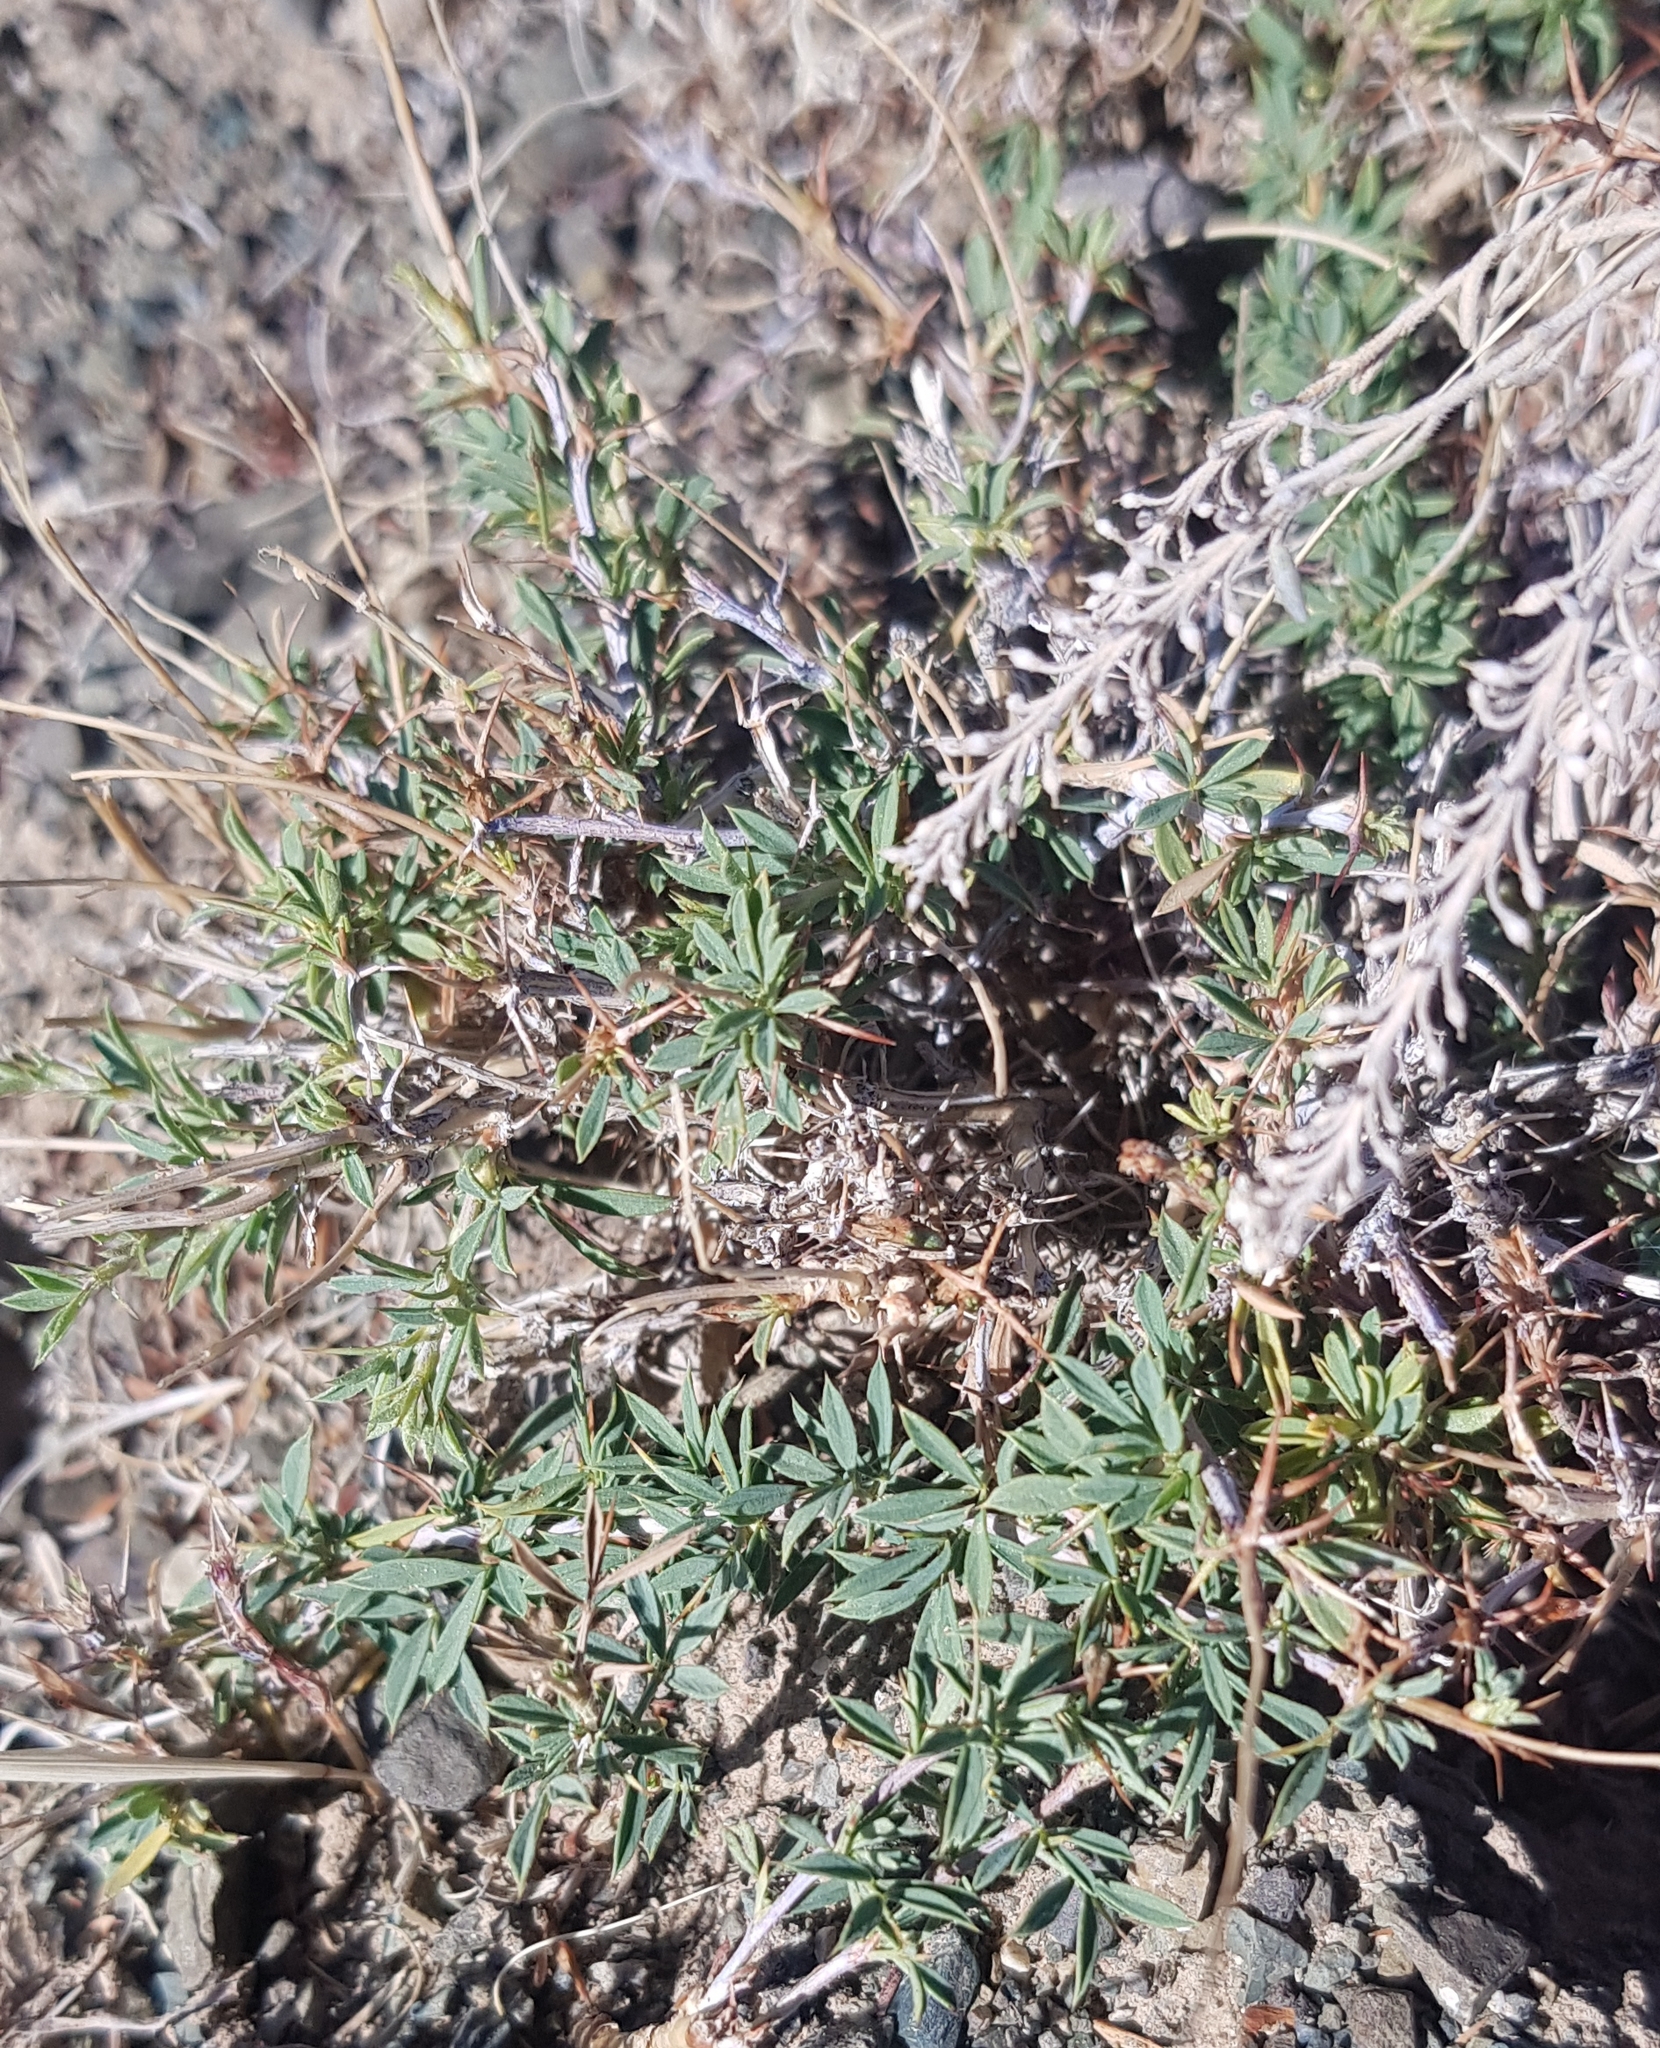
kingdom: Plantae
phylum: Tracheophyta
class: Magnoliopsida
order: Fabales
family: Fabaceae
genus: Caragana
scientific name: Caragana pygmaea
